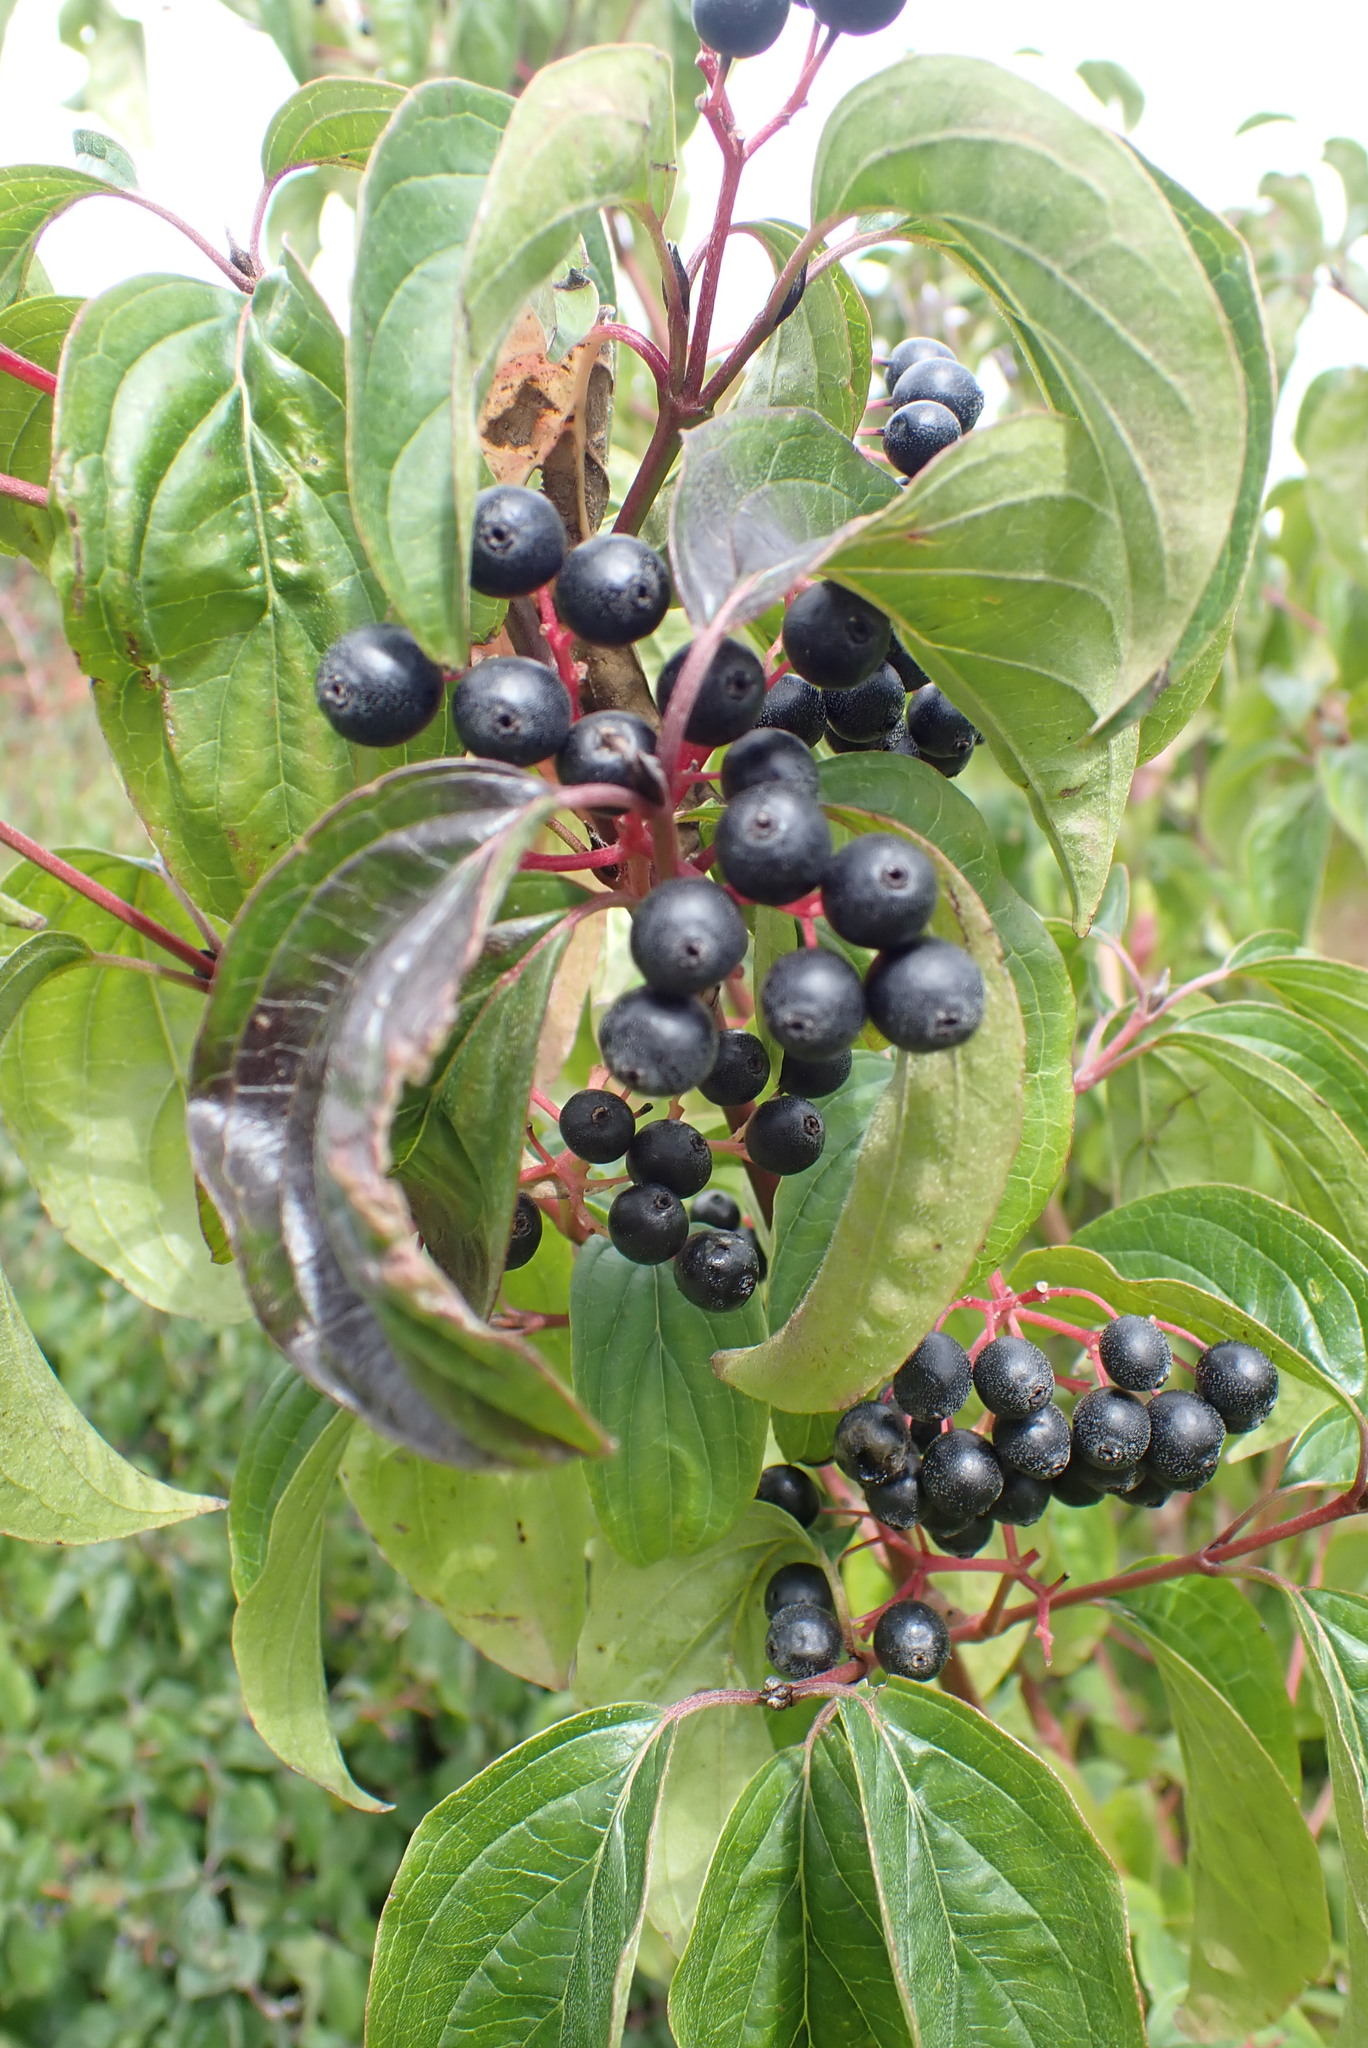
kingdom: Plantae
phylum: Tracheophyta
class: Magnoliopsida
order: Cornales
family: Cornaceae
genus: Cornus
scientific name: Cornus sanguinea
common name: Dogwood
